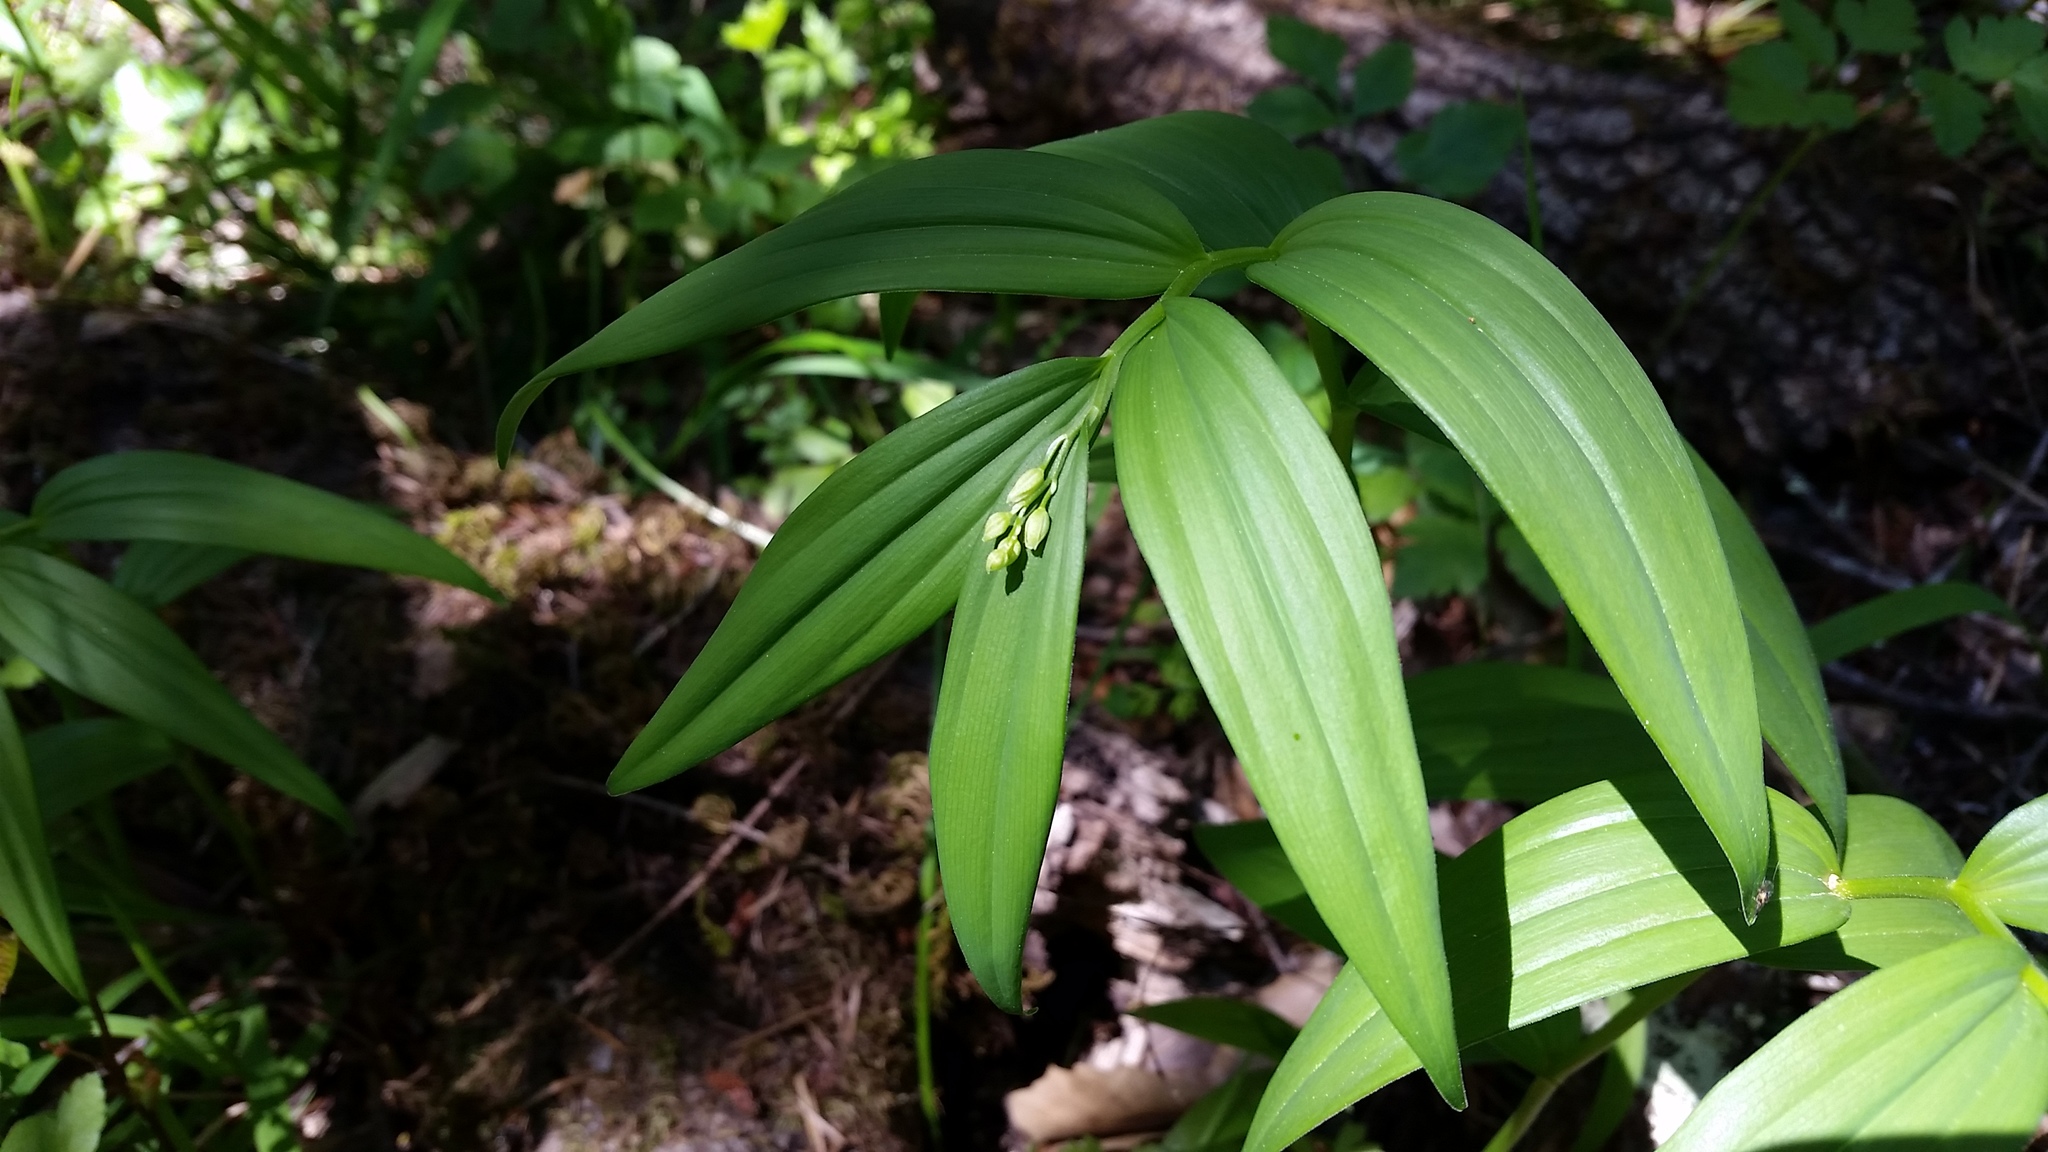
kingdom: Plantae
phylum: Tracheophyta
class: Liliopsida
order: Asparagales
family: Asparagaceae
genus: Maianthemum
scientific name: Maianthemum stellatum
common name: Little false solomon's seal
